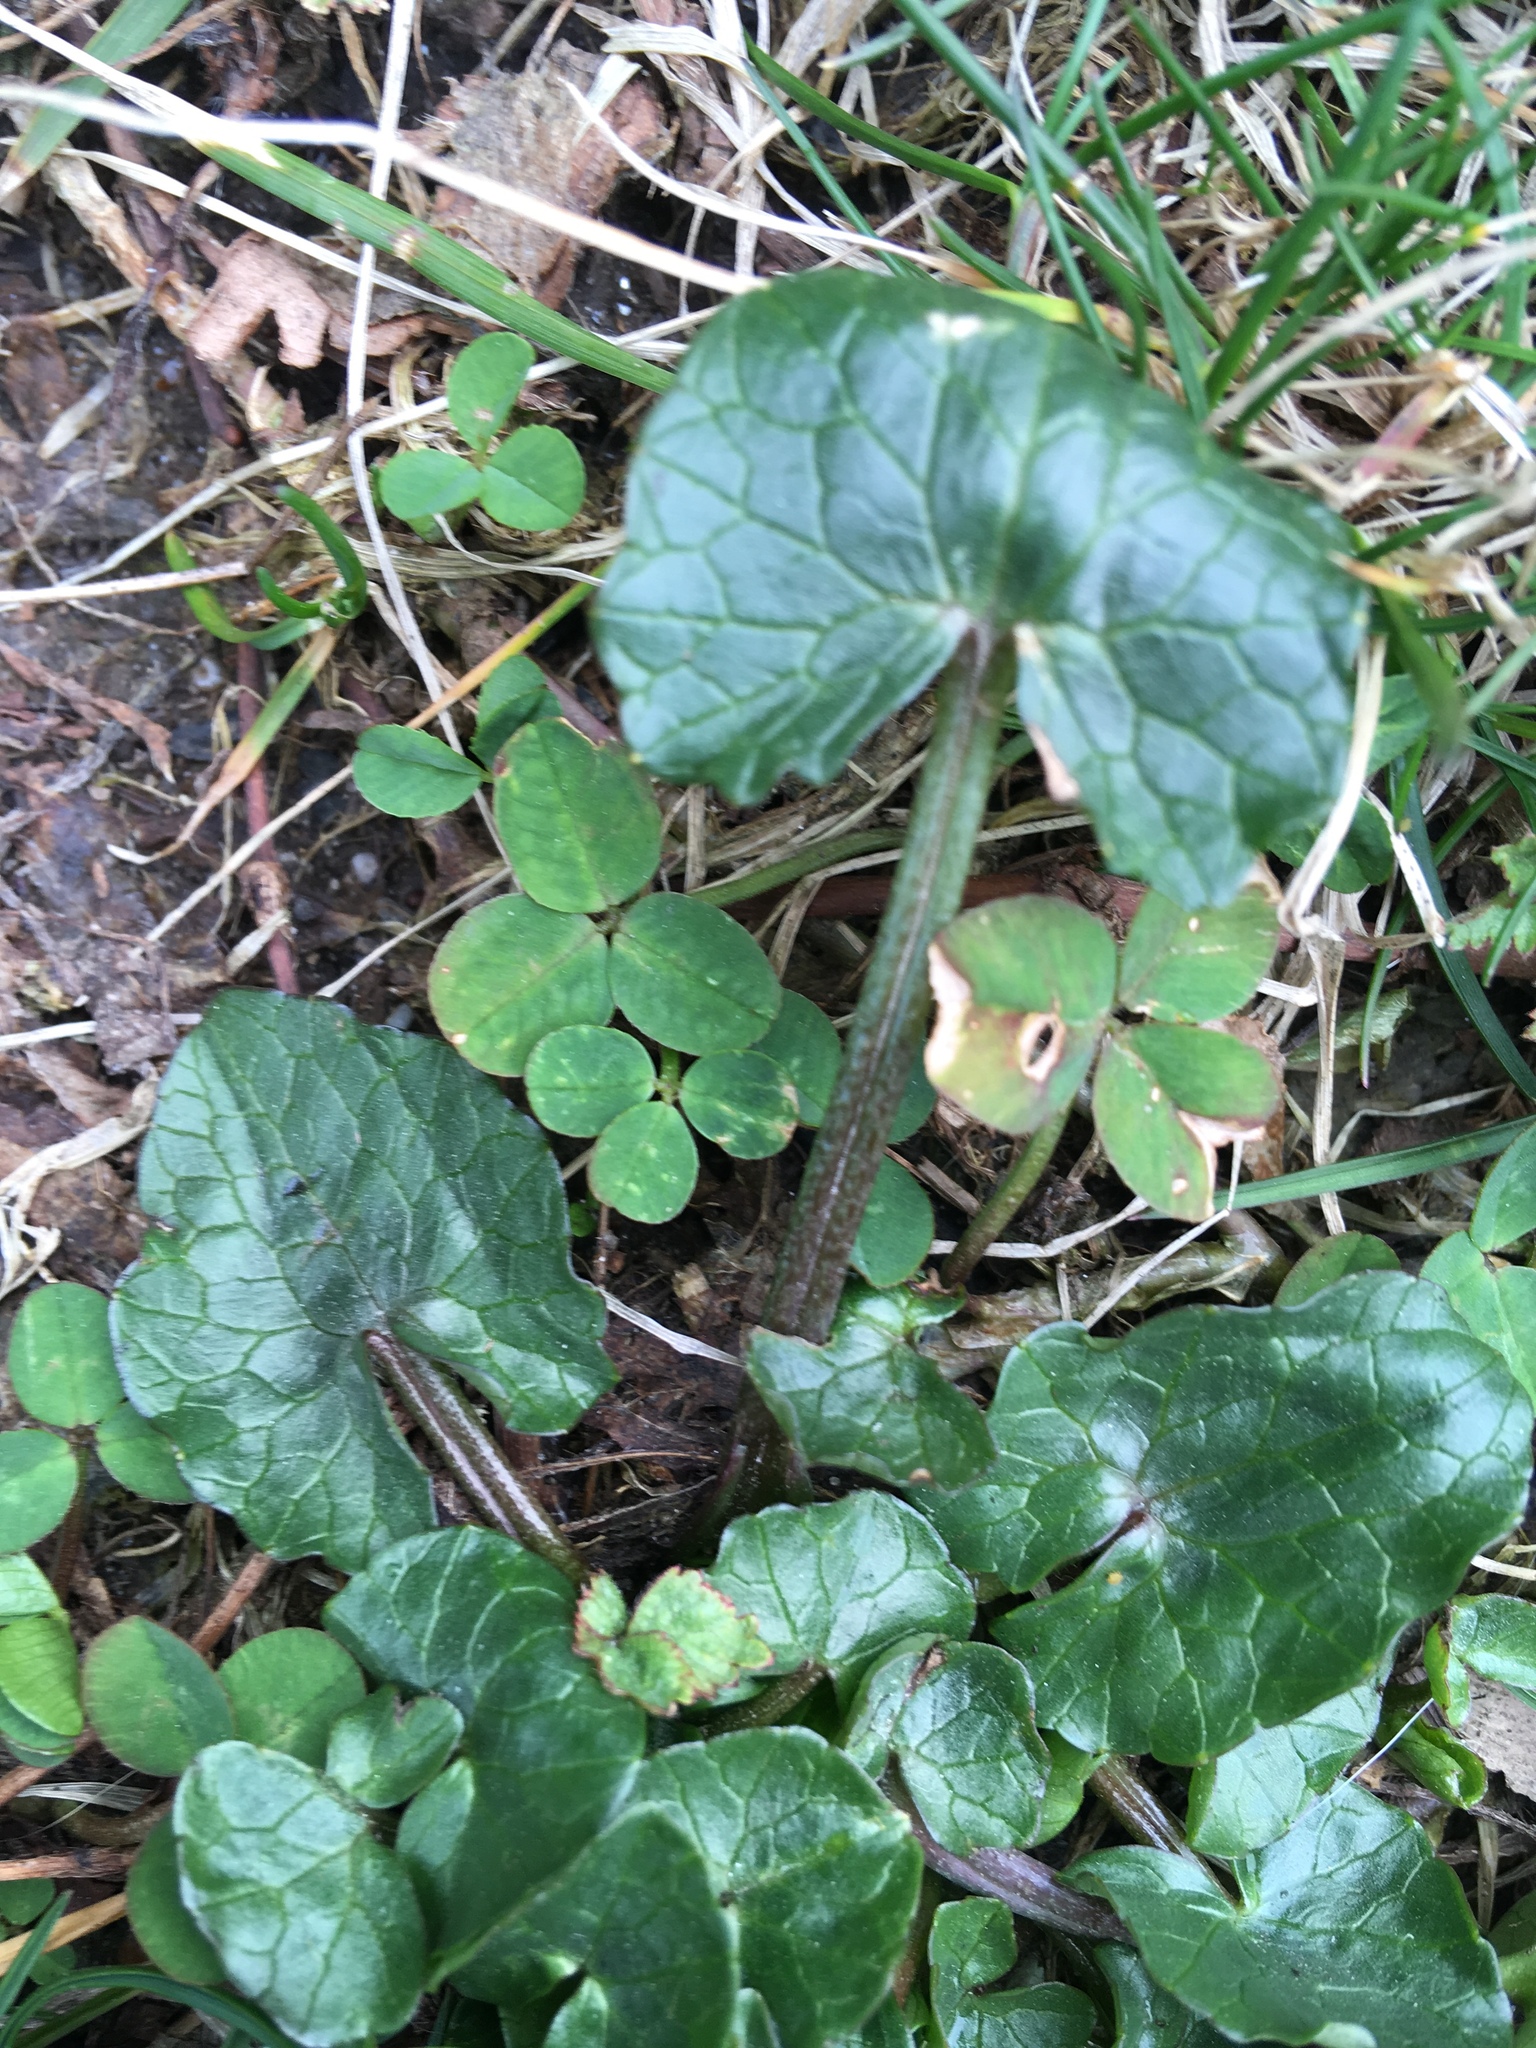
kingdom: Plantae
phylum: Tracheophyta
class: Magnoliopsida
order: Ranunculales
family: Ranunculaceae
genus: Ficaria
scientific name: Ficaria verna
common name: Lesser celandine
